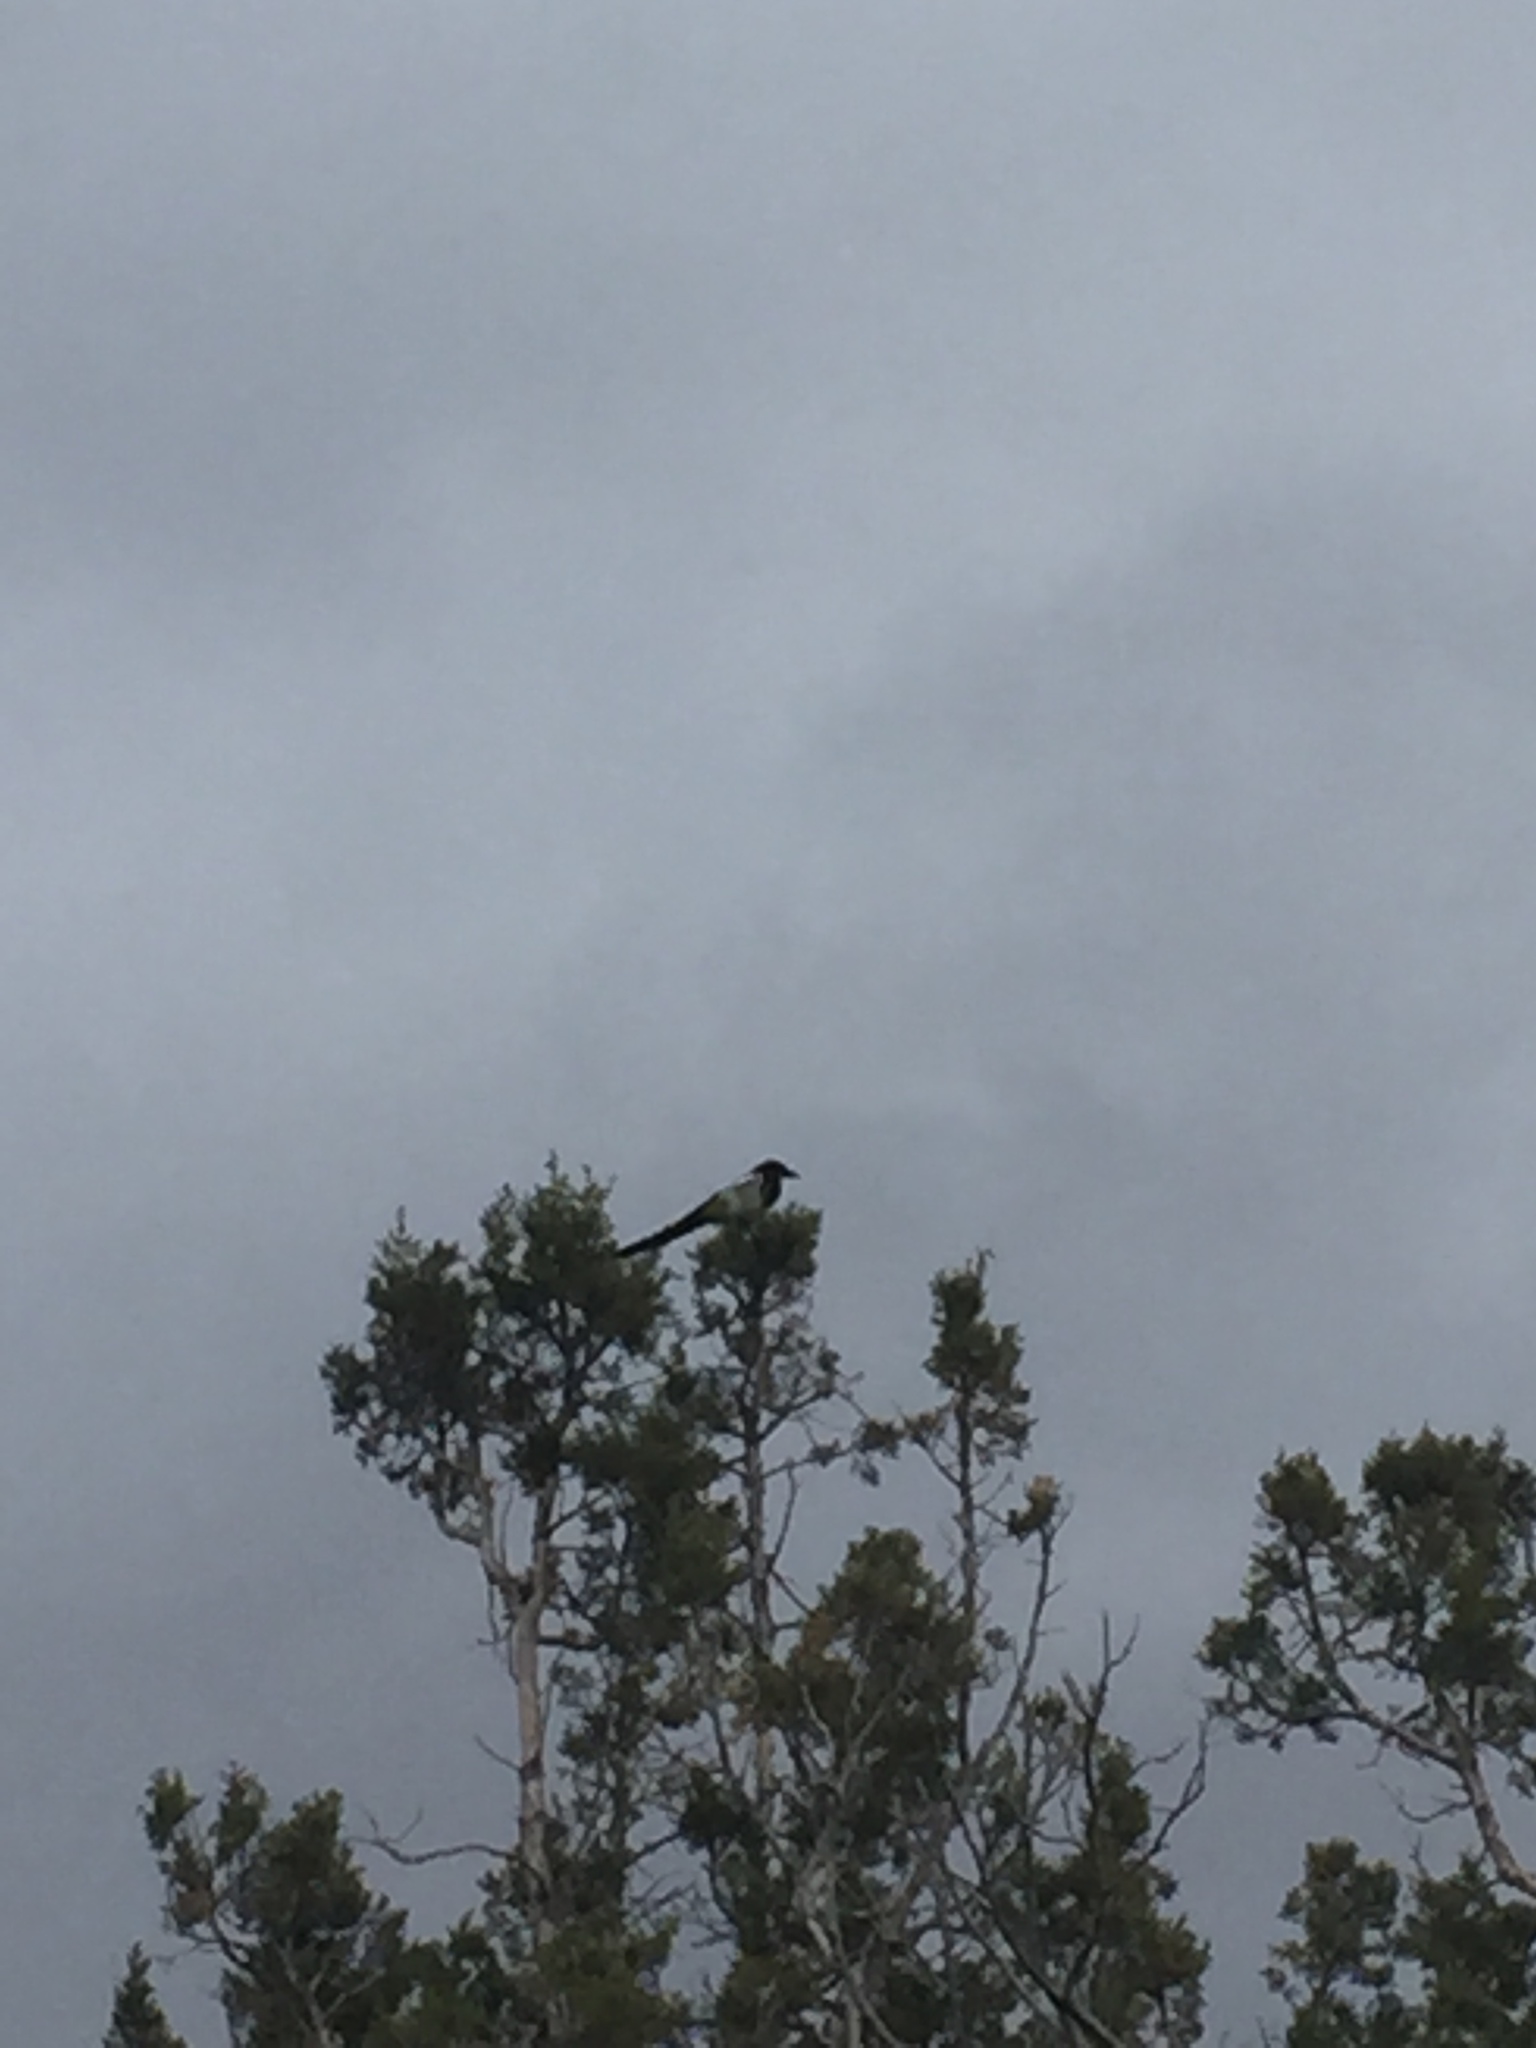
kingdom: Animalia
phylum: Chordata
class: Aves
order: Passeriformes
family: Corvidae
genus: Pica
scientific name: Pica hudsonia
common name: Black-billed magpie
